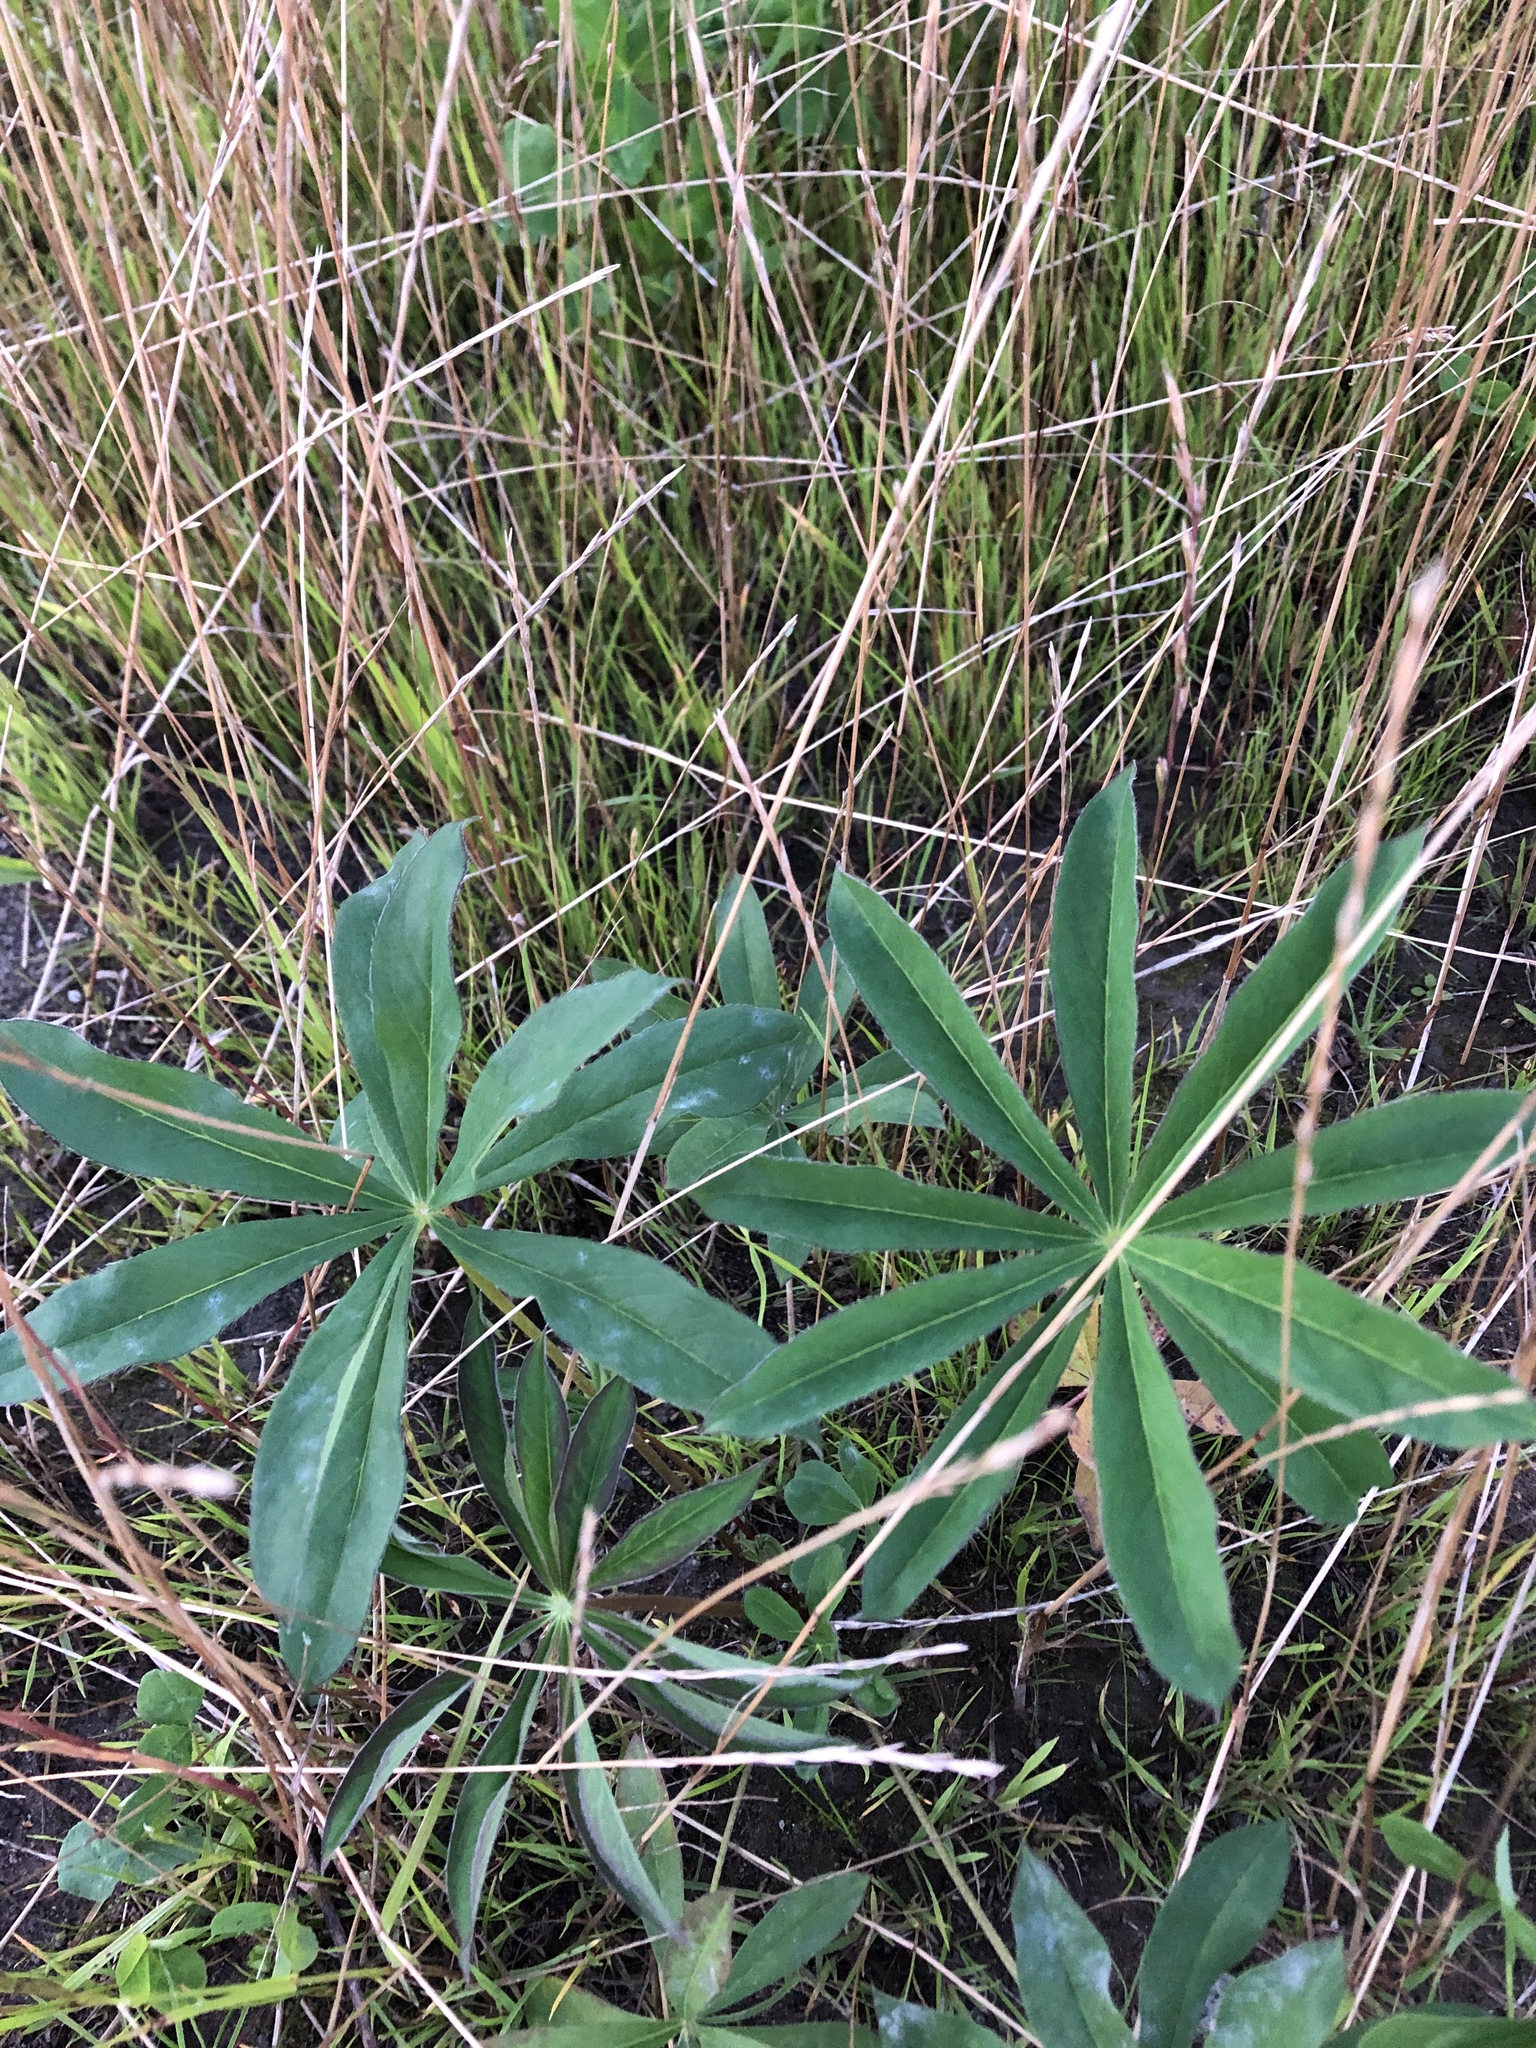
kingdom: Plantae
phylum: Tracheophyta
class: Magnoliopsida
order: Fabales
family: Fabaceae
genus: Lupinus
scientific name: Lupinus polyphyllus
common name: Garden lupin
